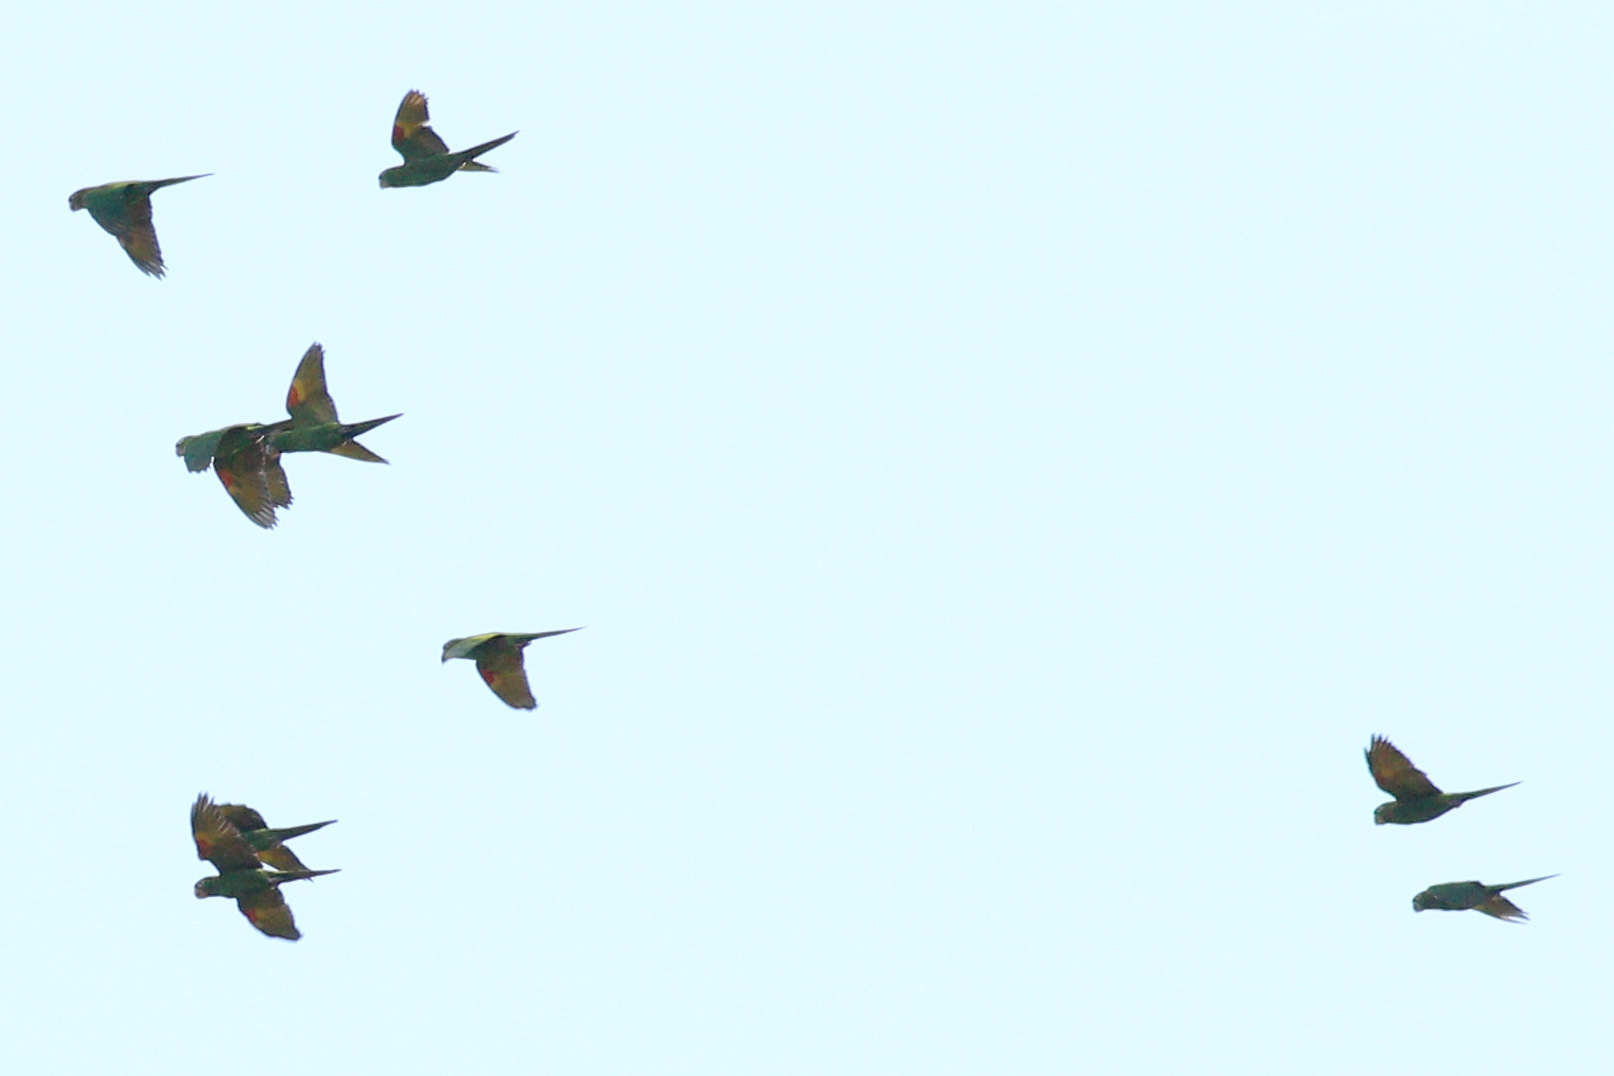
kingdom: Animalia
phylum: Chordata
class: Aves
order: Psittaciformes
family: Psittacidae
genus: Aratinga
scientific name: Aratinga leucophthalma
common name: White-eyed parakeet
